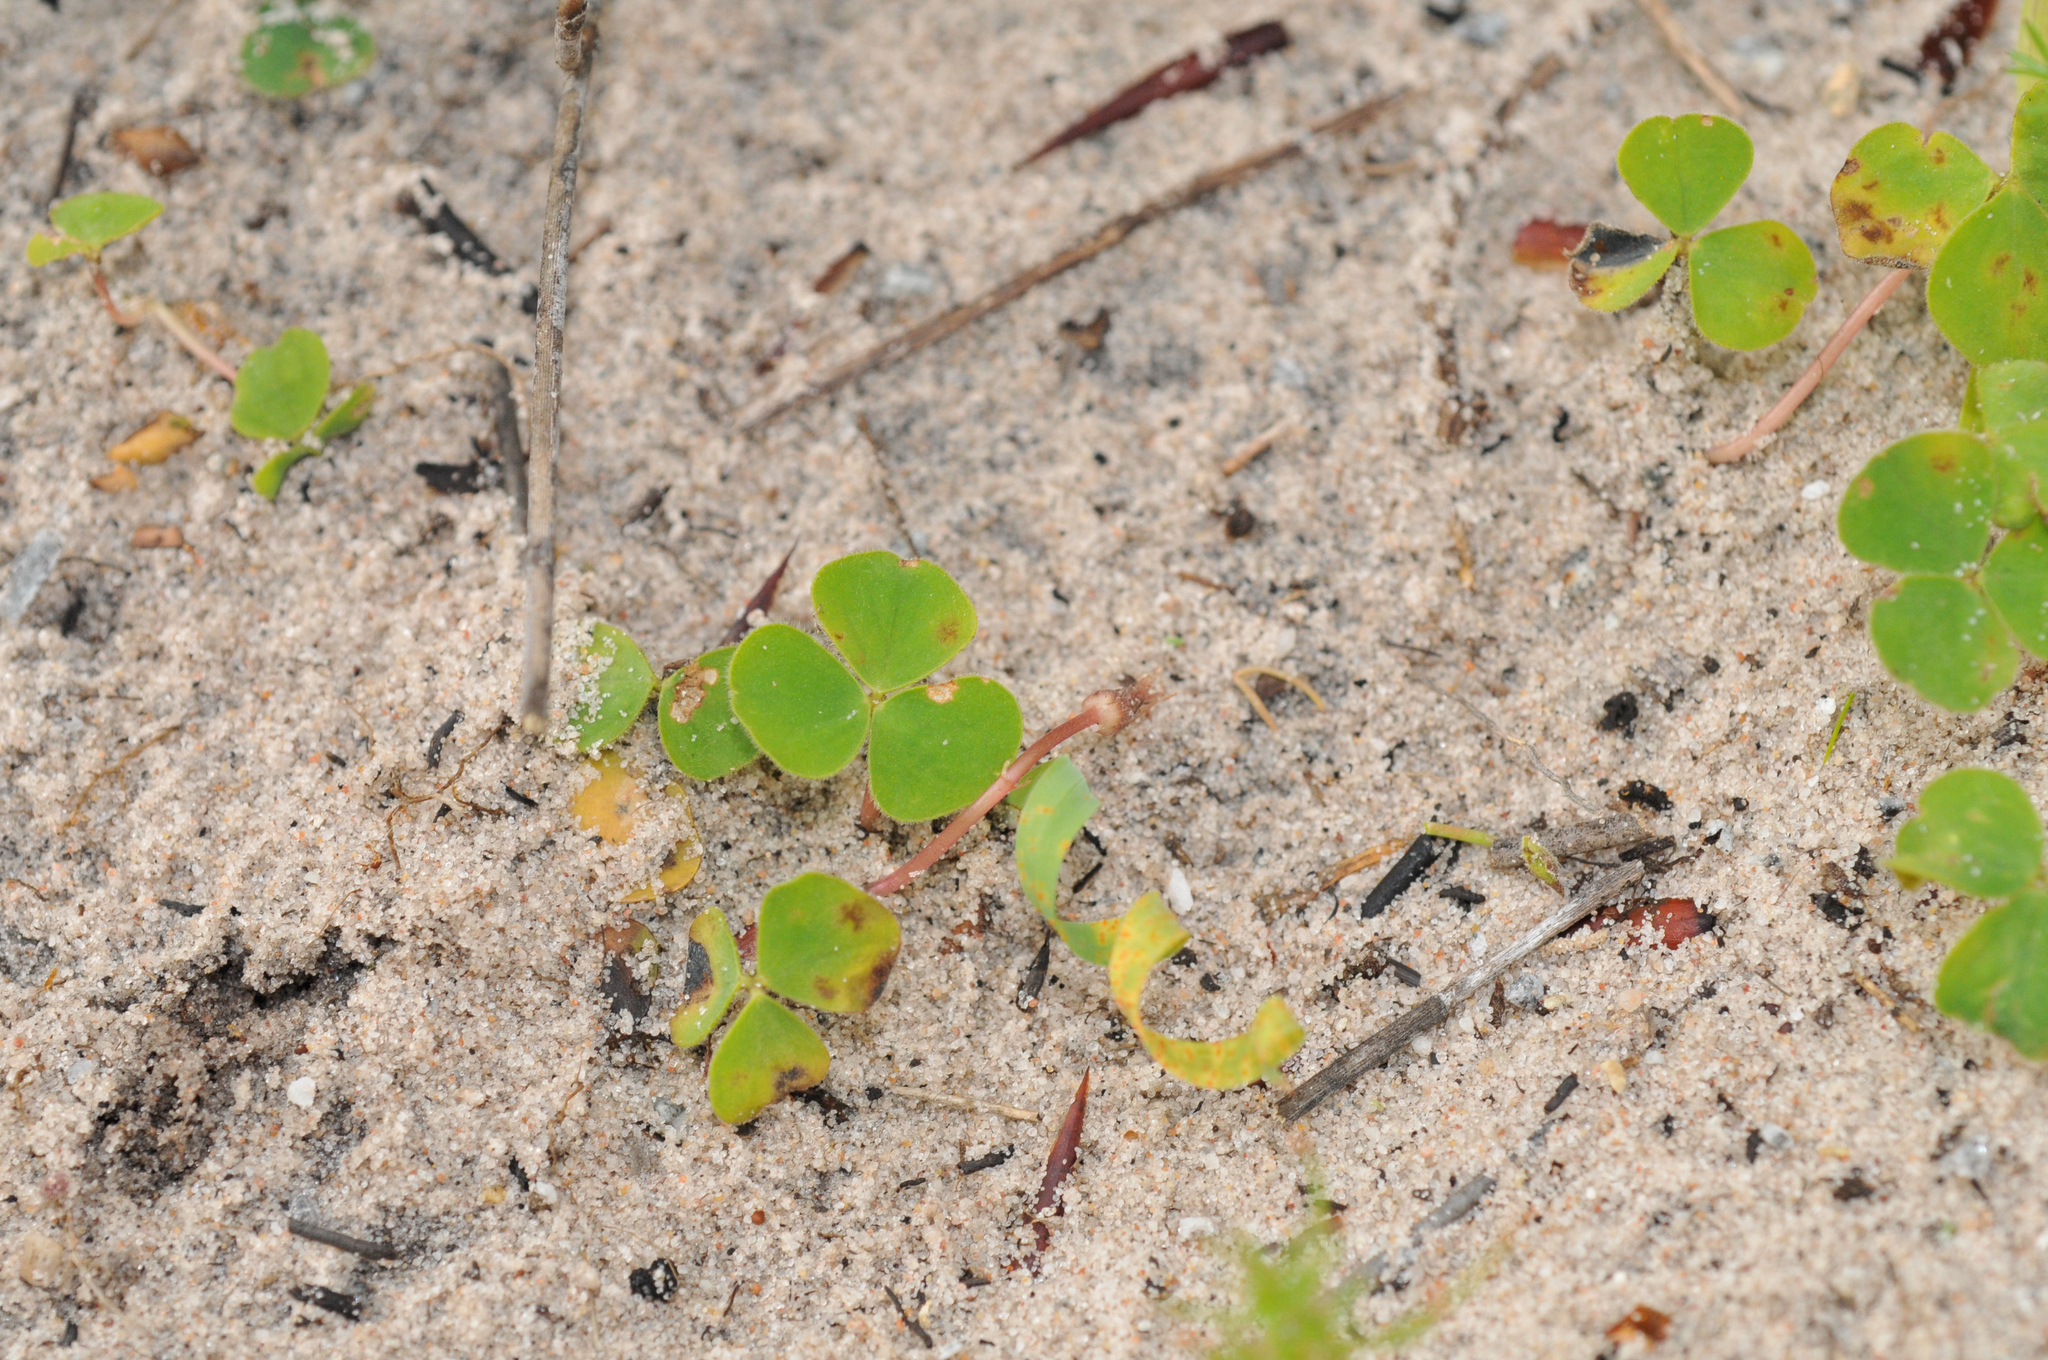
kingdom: Plantae
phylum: Tracheophyta
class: Magnoliopsida
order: Oxalidales
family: Oxalidaceae
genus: Oxalis
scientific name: Oxalis obtusa
